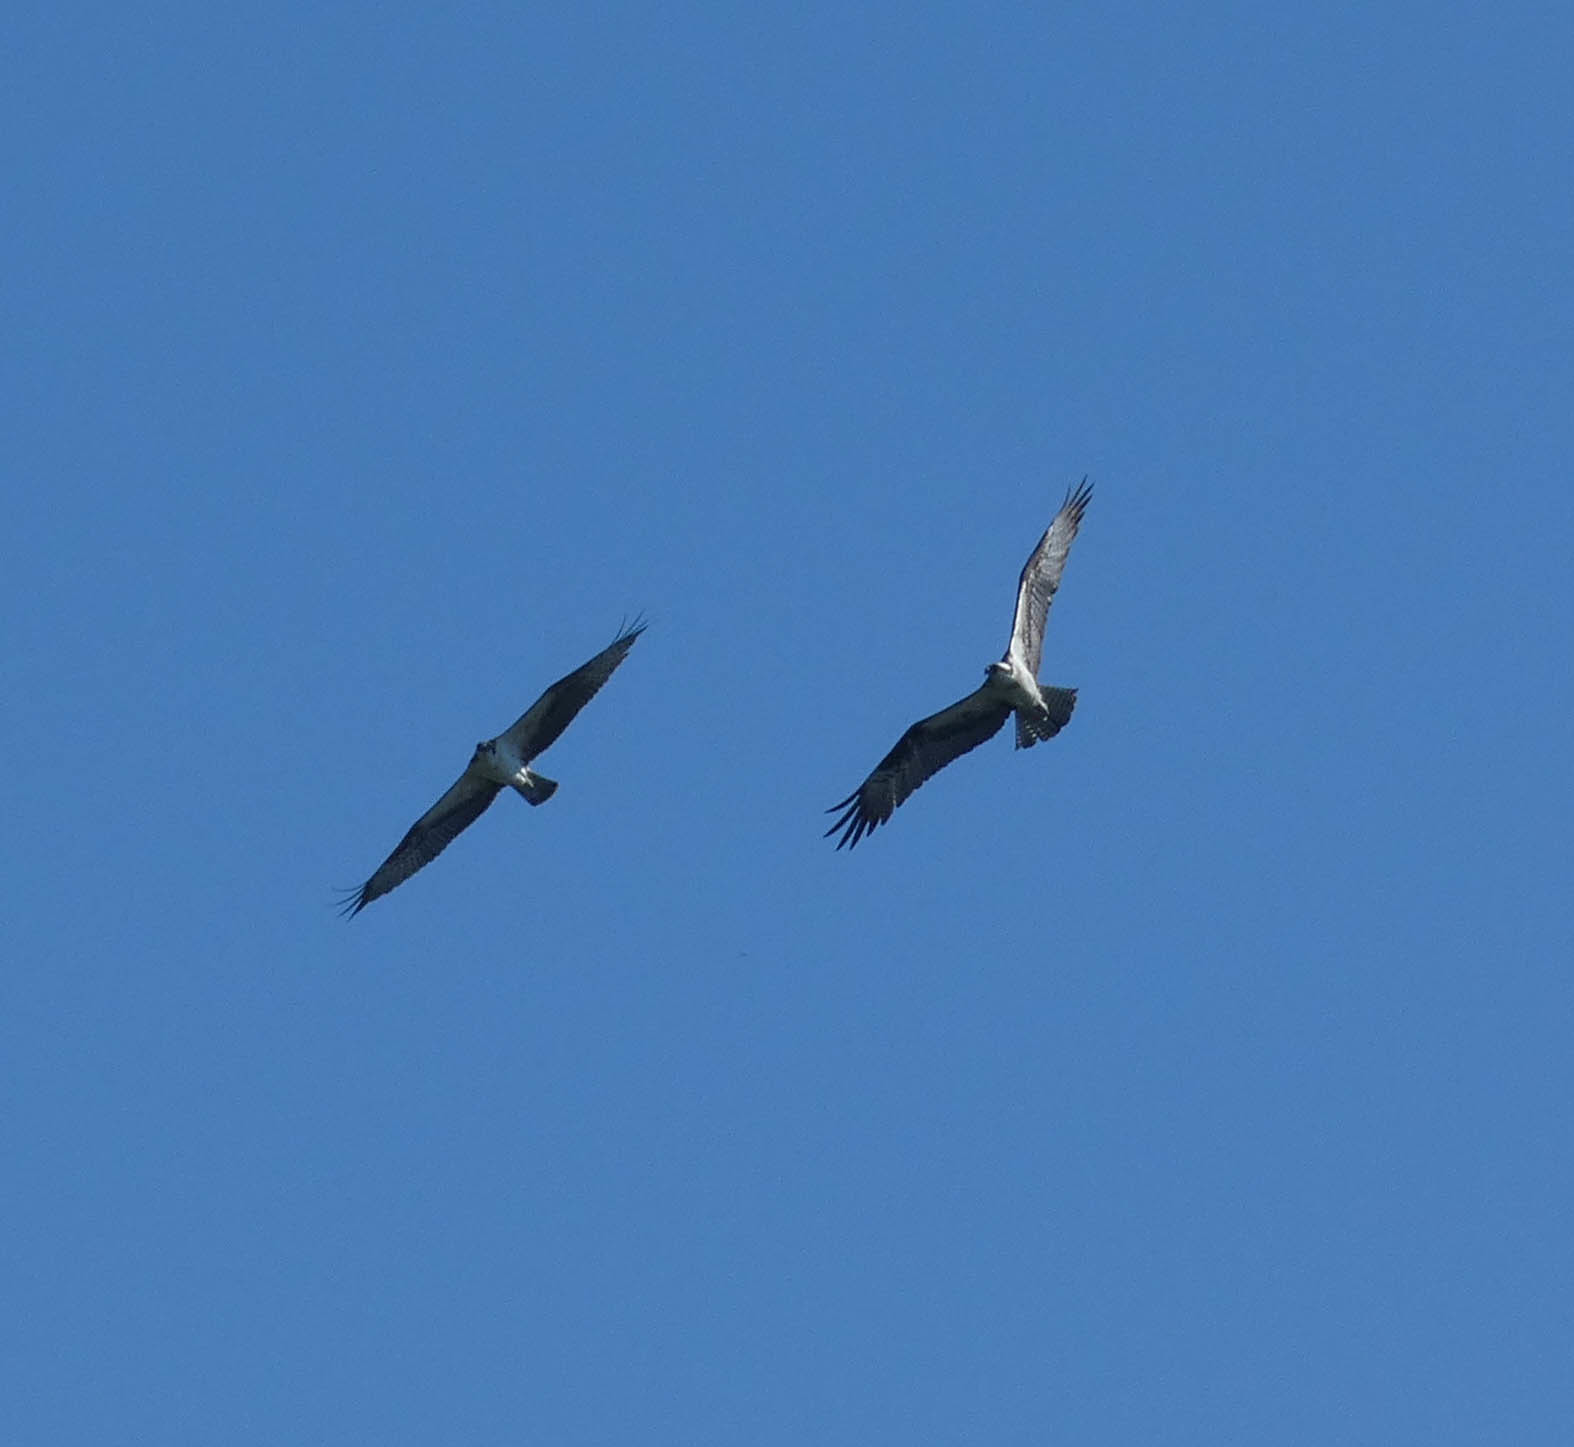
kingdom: Animalia
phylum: Chordata
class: Aves
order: Accipitriformes
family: Pandionidae
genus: Pandion
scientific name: Pandion haliaetus
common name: Osprey
